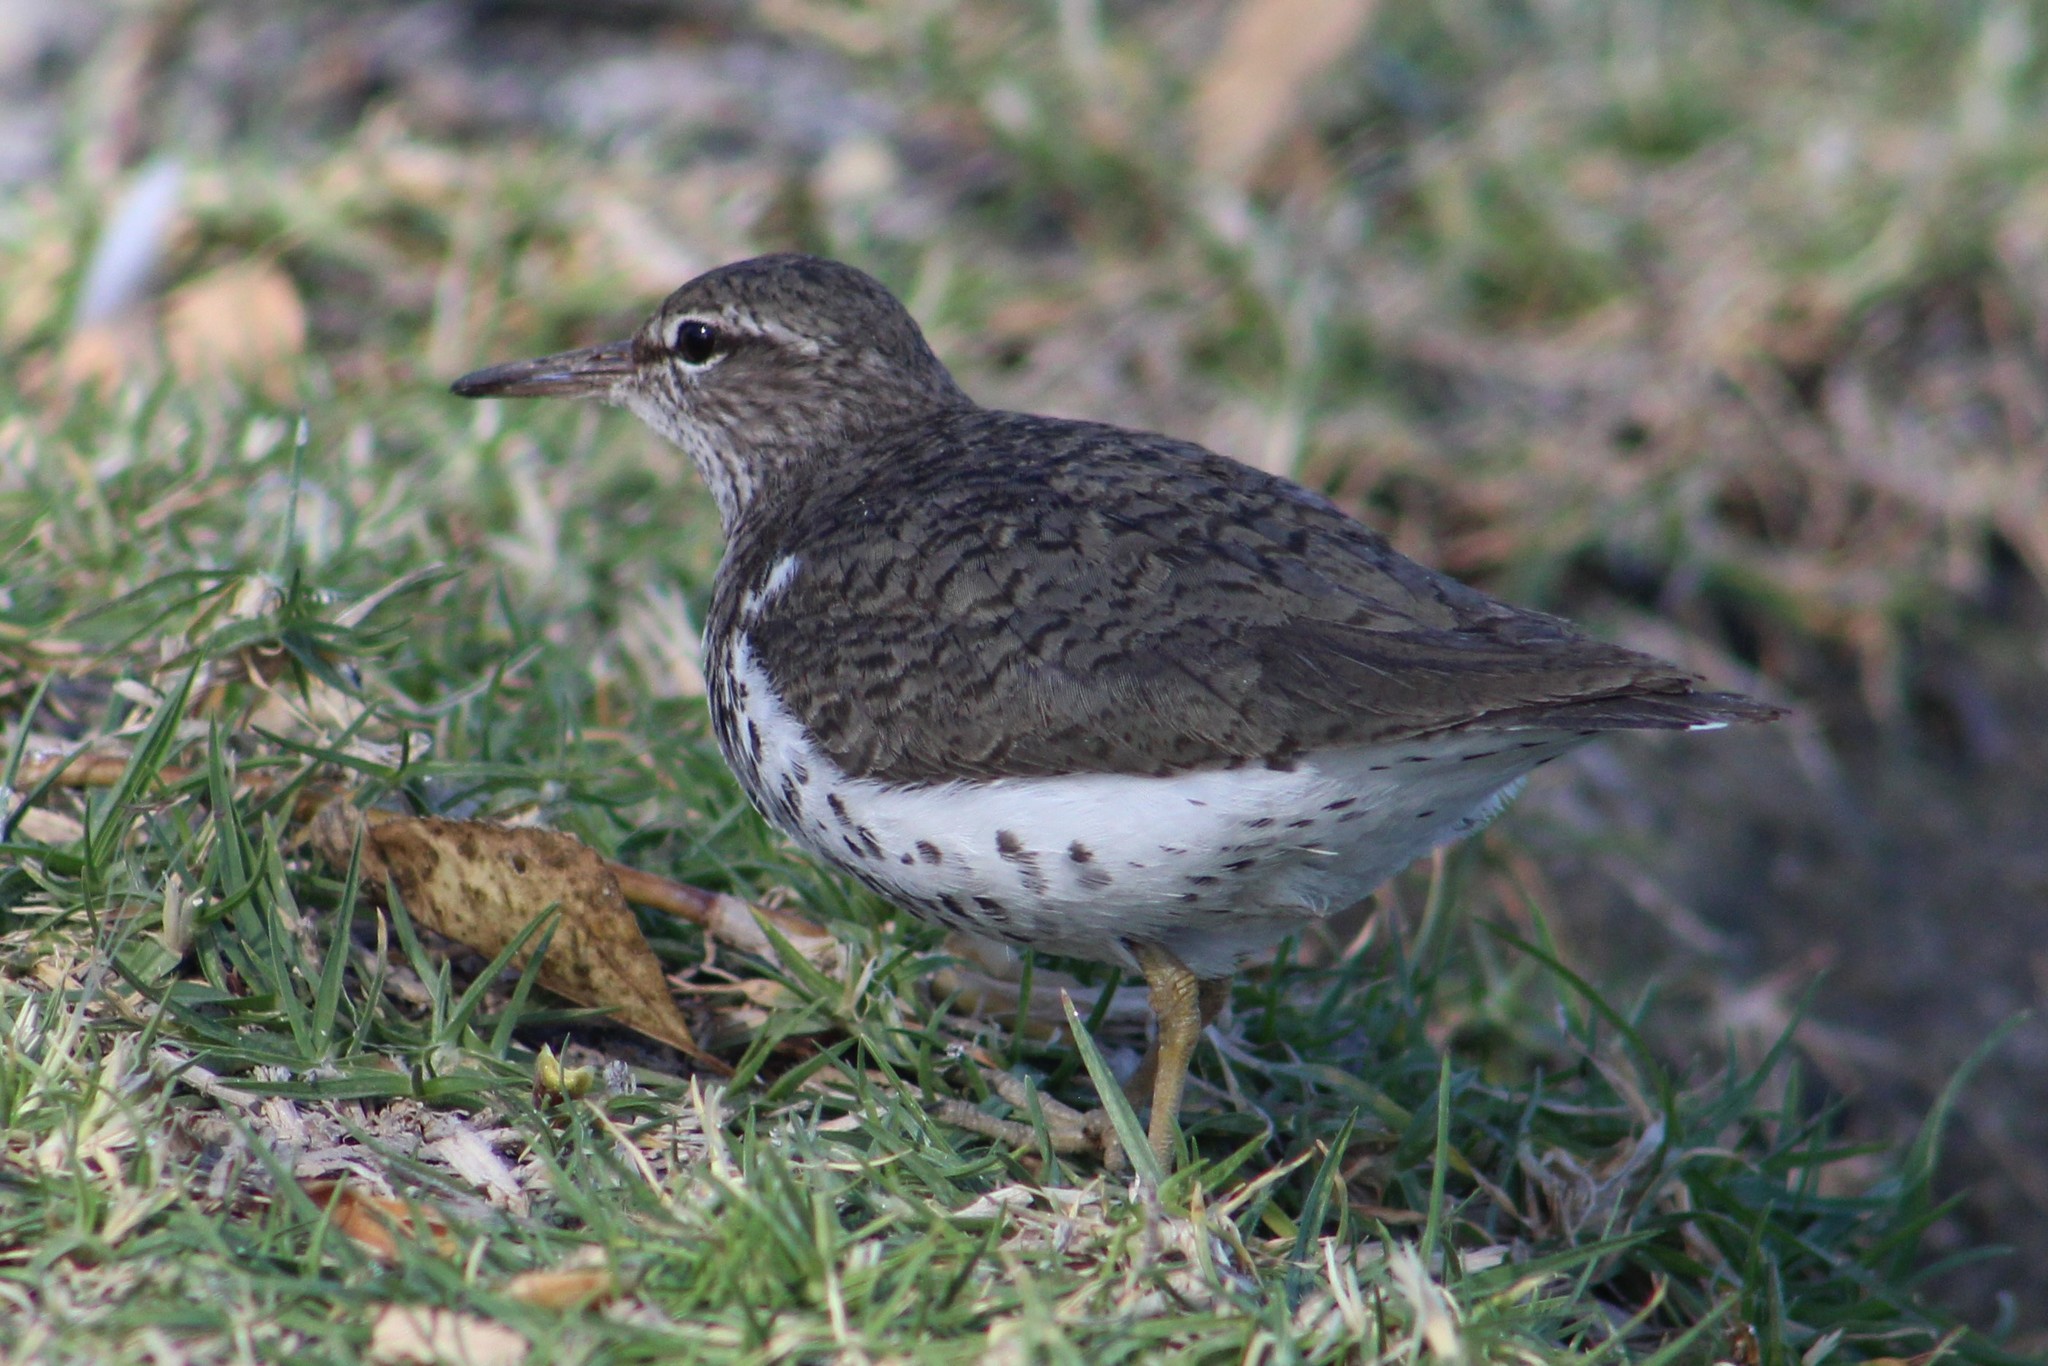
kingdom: Animalia
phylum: Chordata
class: Aves
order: Charadriiformes
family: Scolopacidae
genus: Actitis
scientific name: Actitis macularius
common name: Spotted sandpiper
